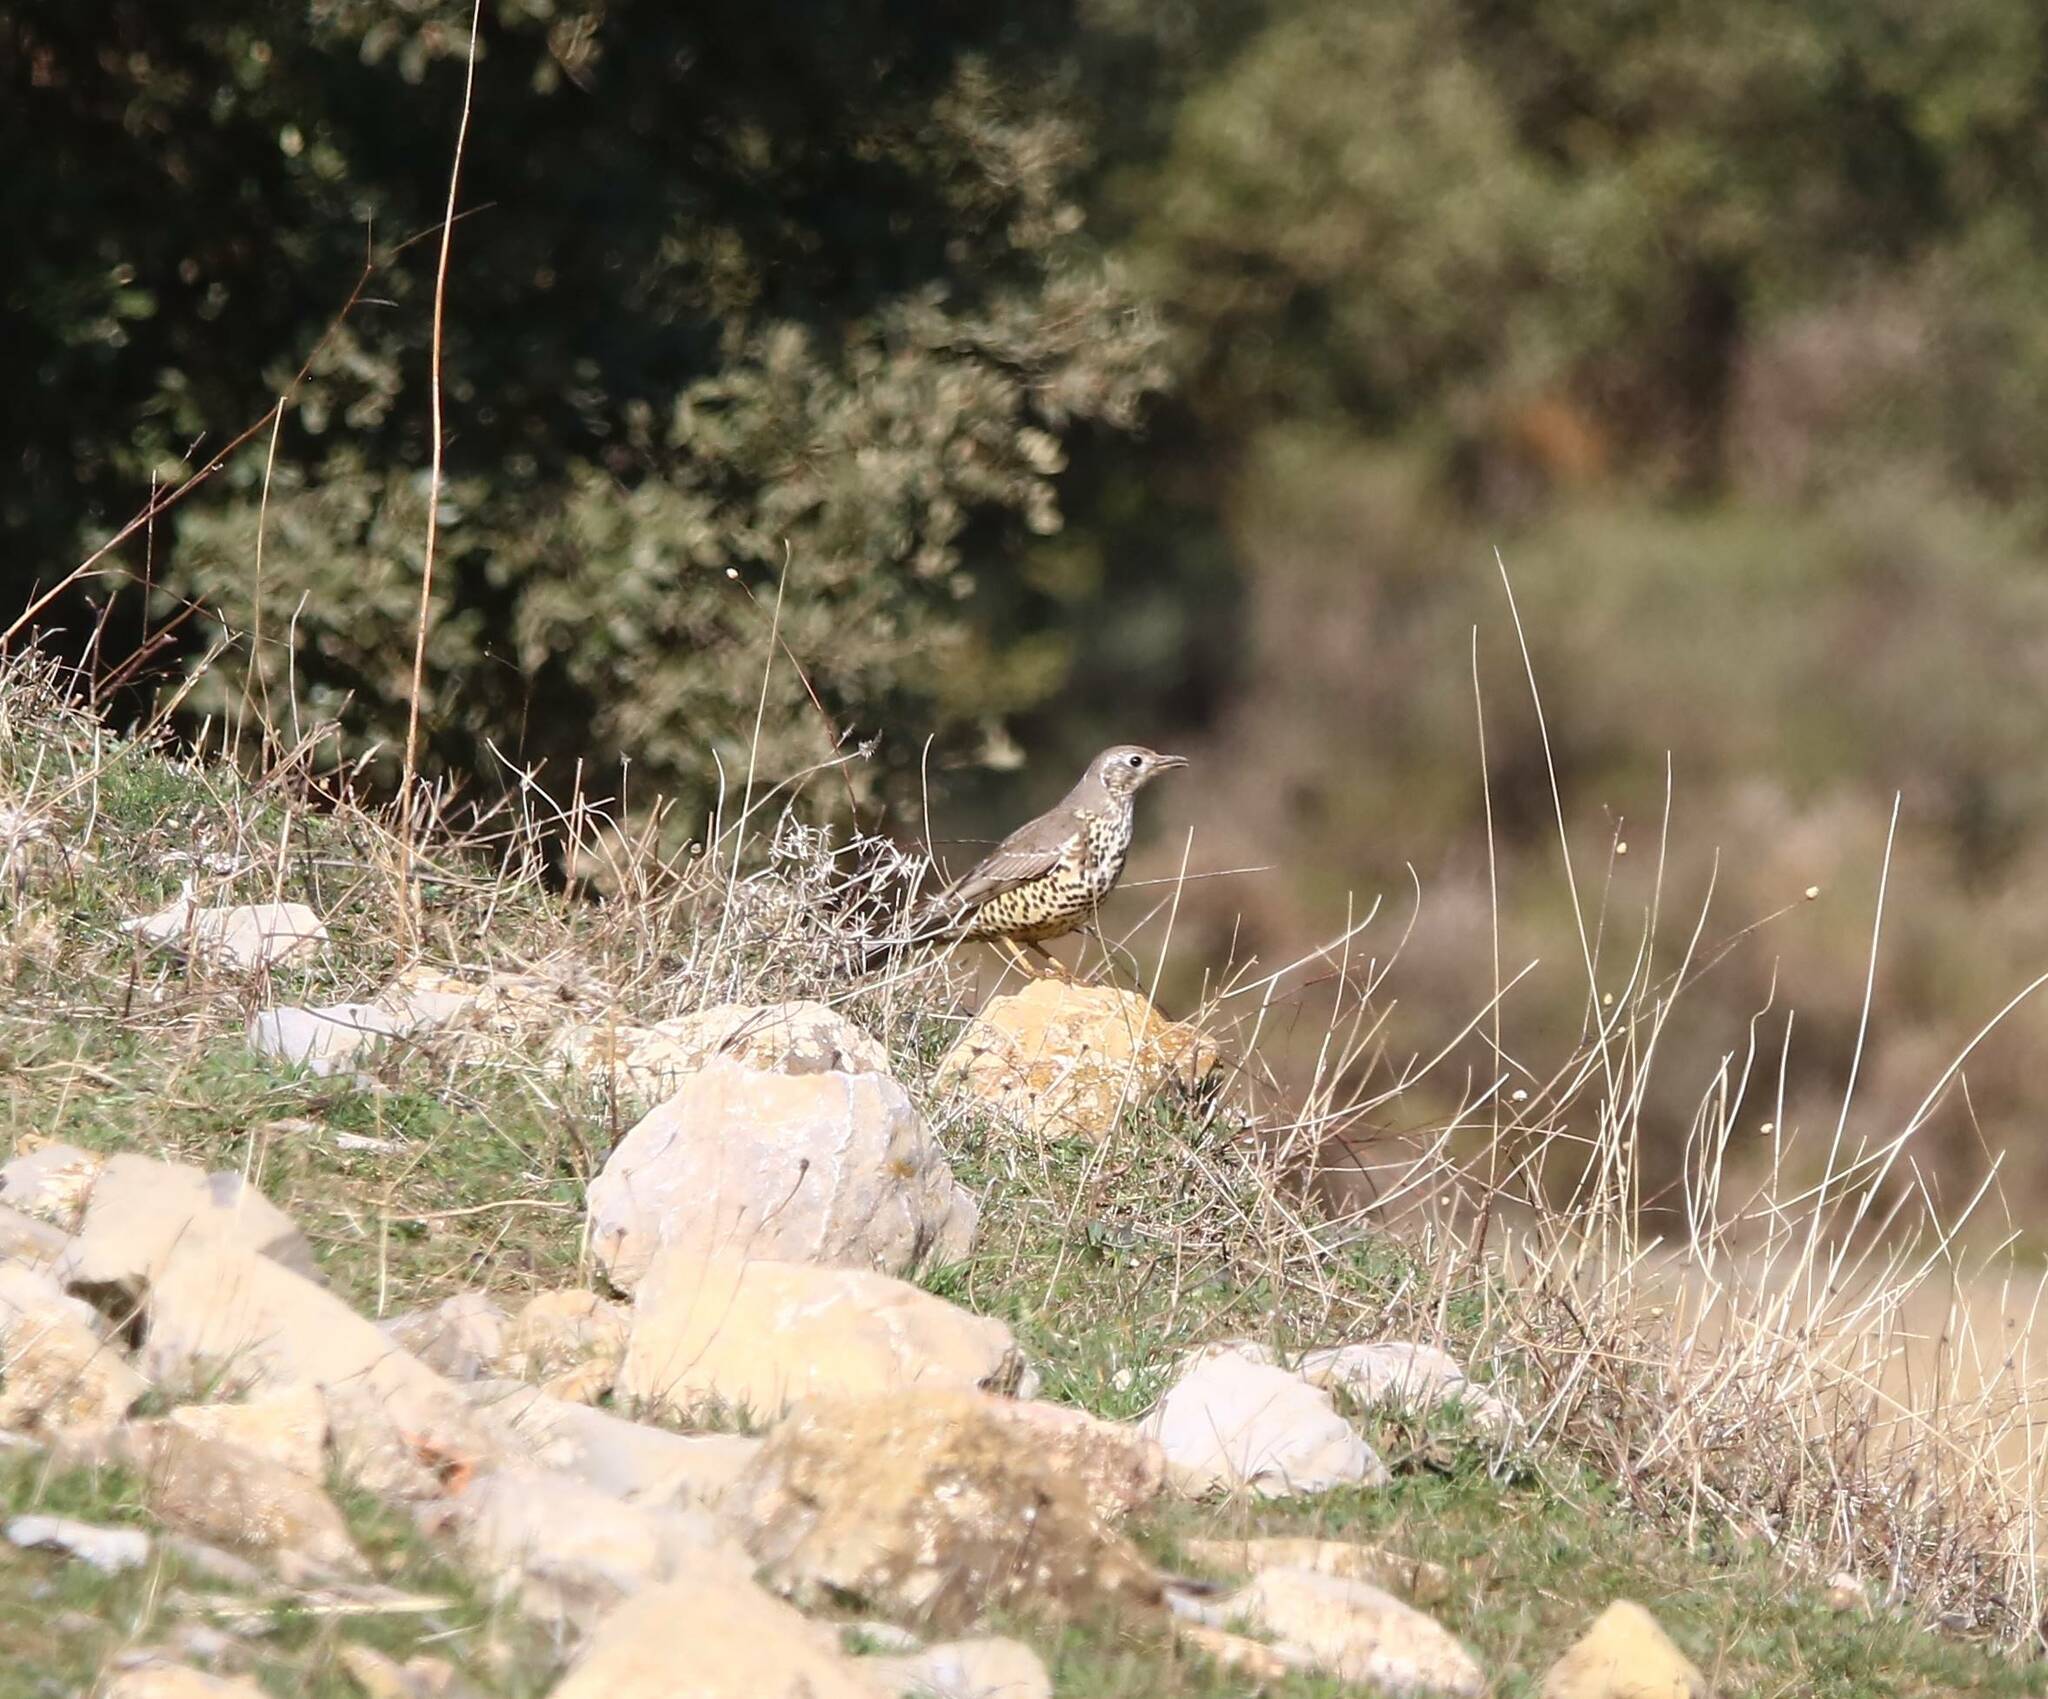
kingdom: Animalia
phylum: Chordata
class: Aves
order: Passeriformes
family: Turdidae
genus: Turdus
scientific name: Turdus viscivorus
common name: Mistle thrush
